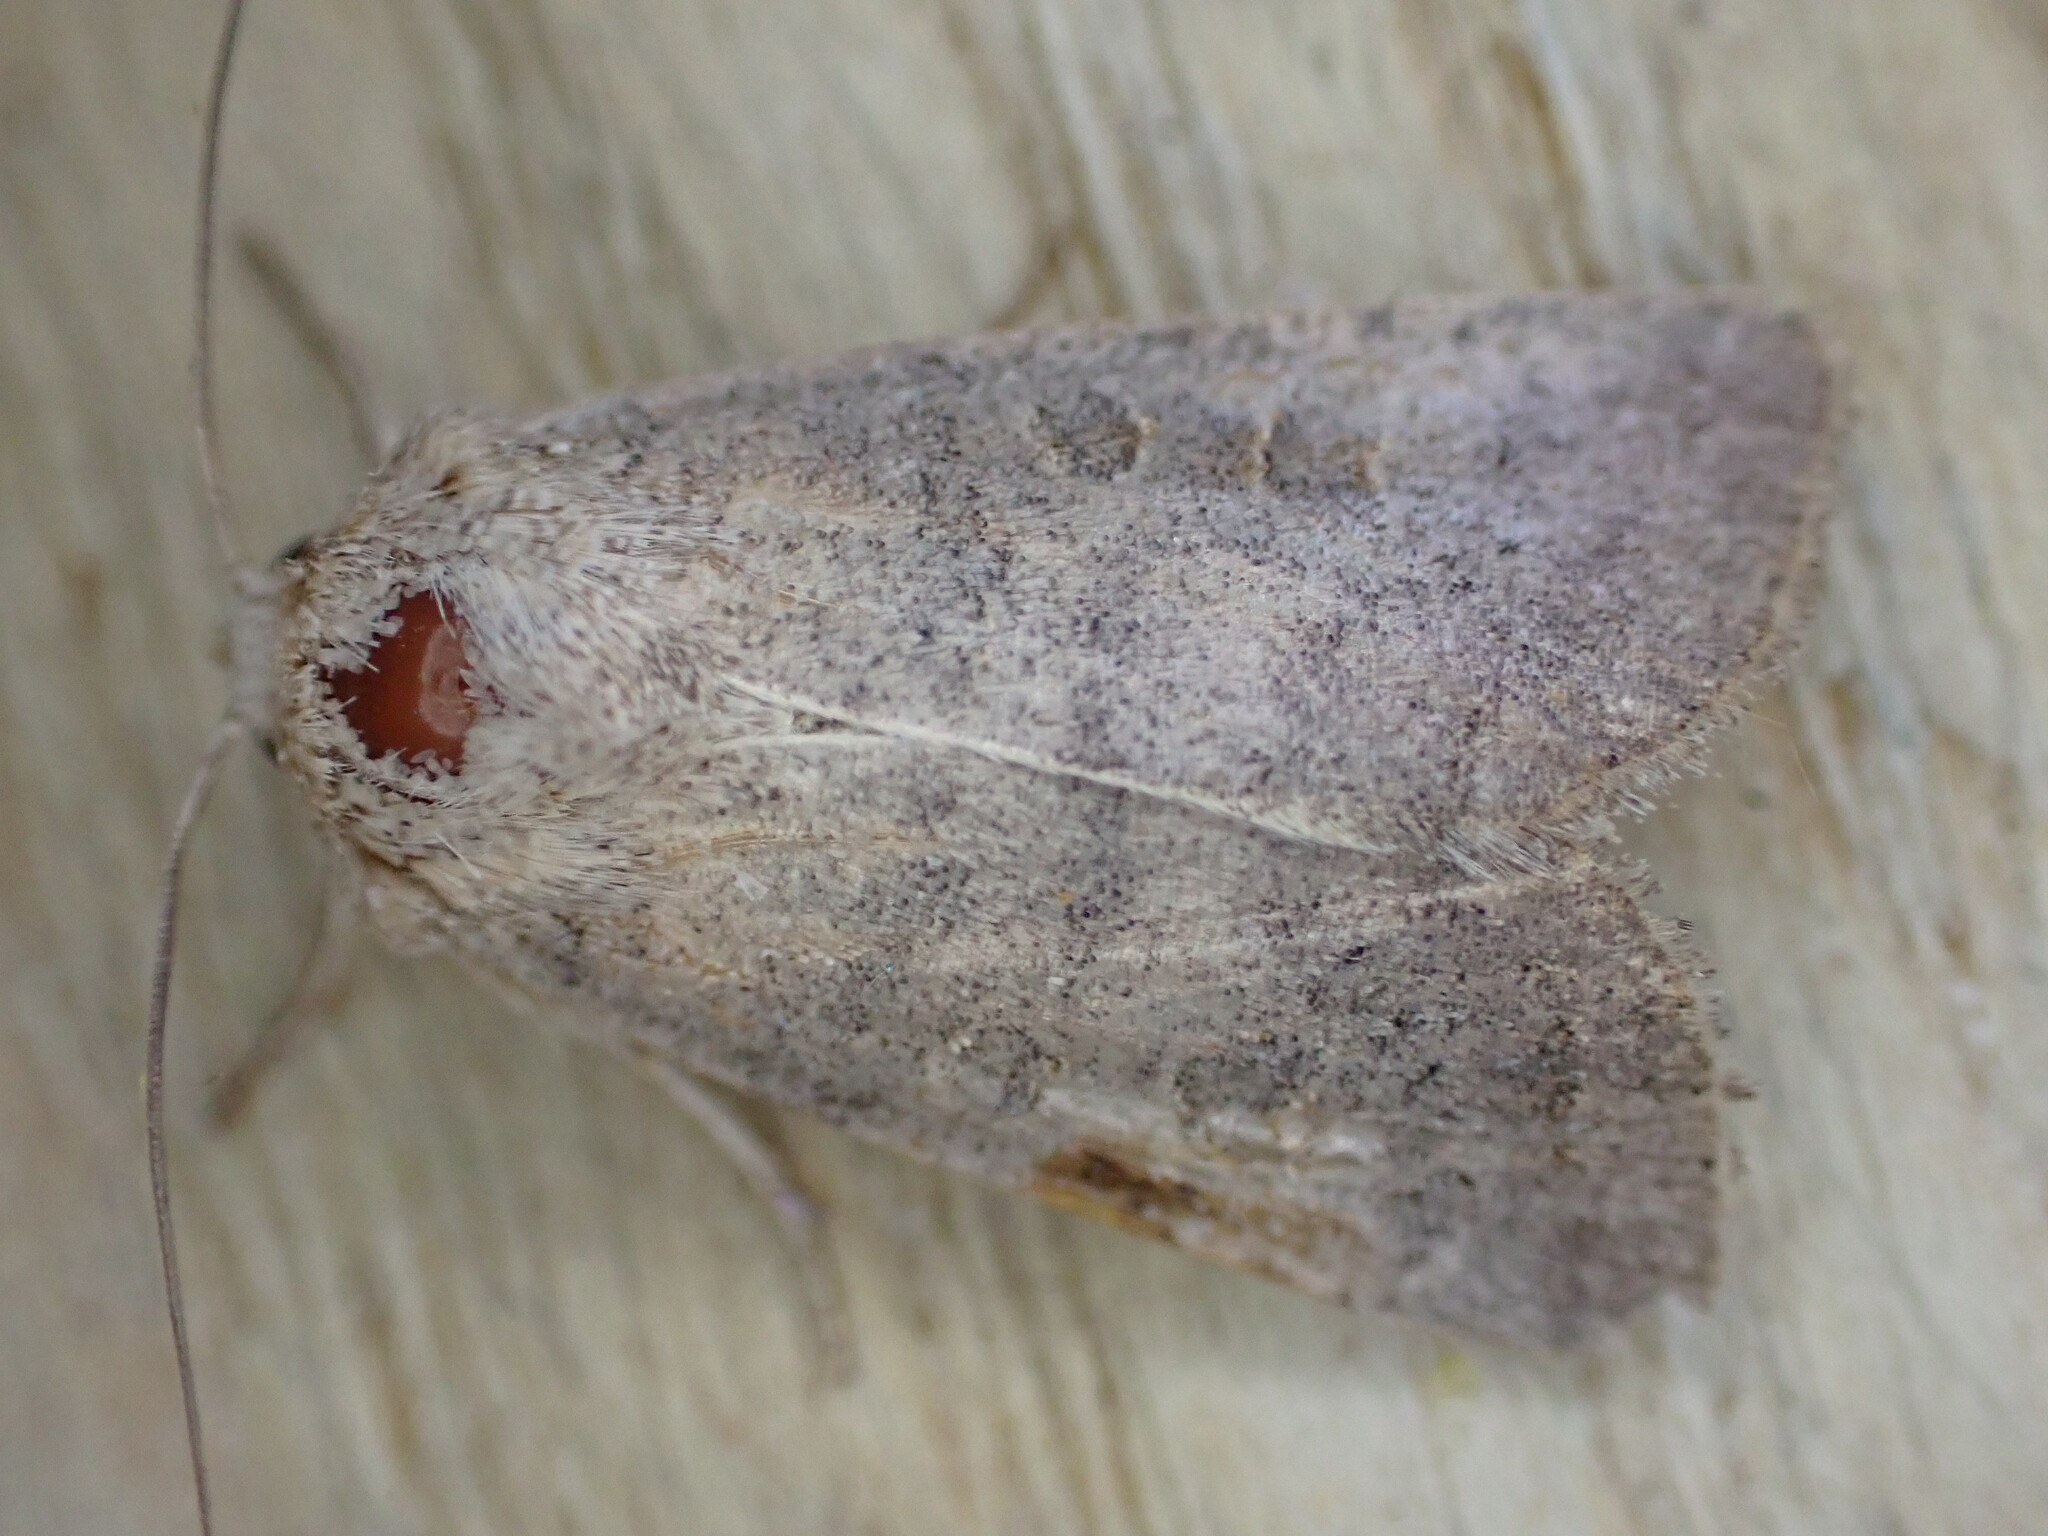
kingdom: Animalia
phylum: Arthropoda
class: Insecta
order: Lepidoptera
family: Noctuidae
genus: Hoplodrina
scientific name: Hoplodrina ambigua
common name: Vine's rustic
